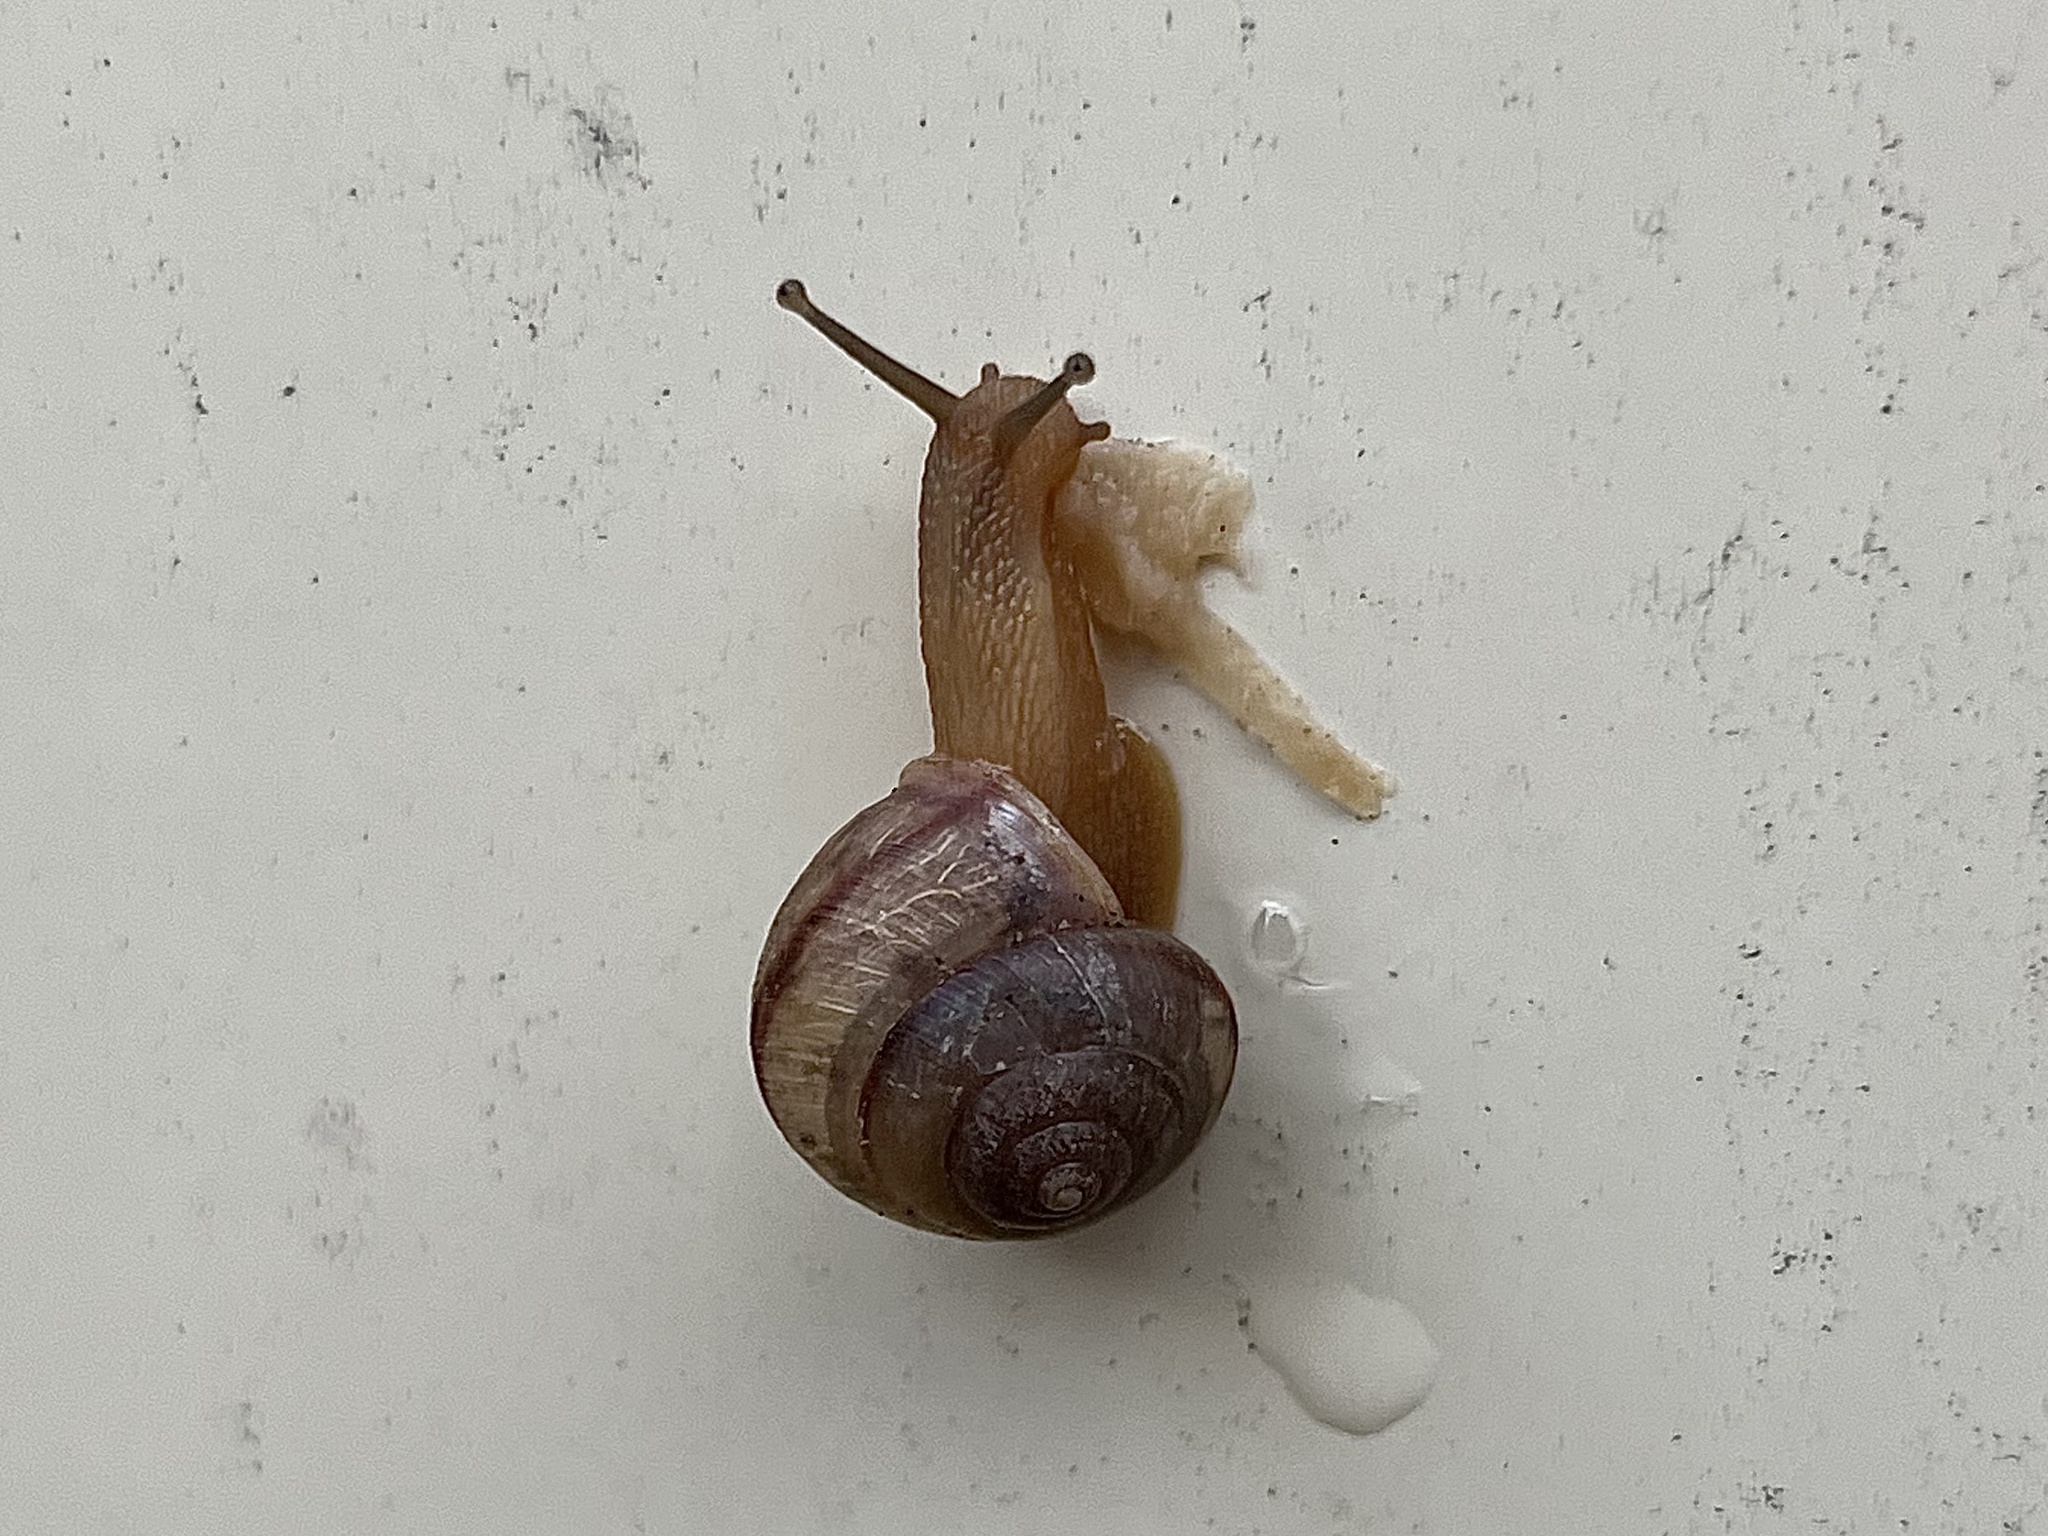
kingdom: Animalia
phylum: Mollusca
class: Gastropoda
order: Stylommatophora
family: Camaenidae
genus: Bradybaena
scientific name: Bradybaena similaris
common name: Asian trampsnail
